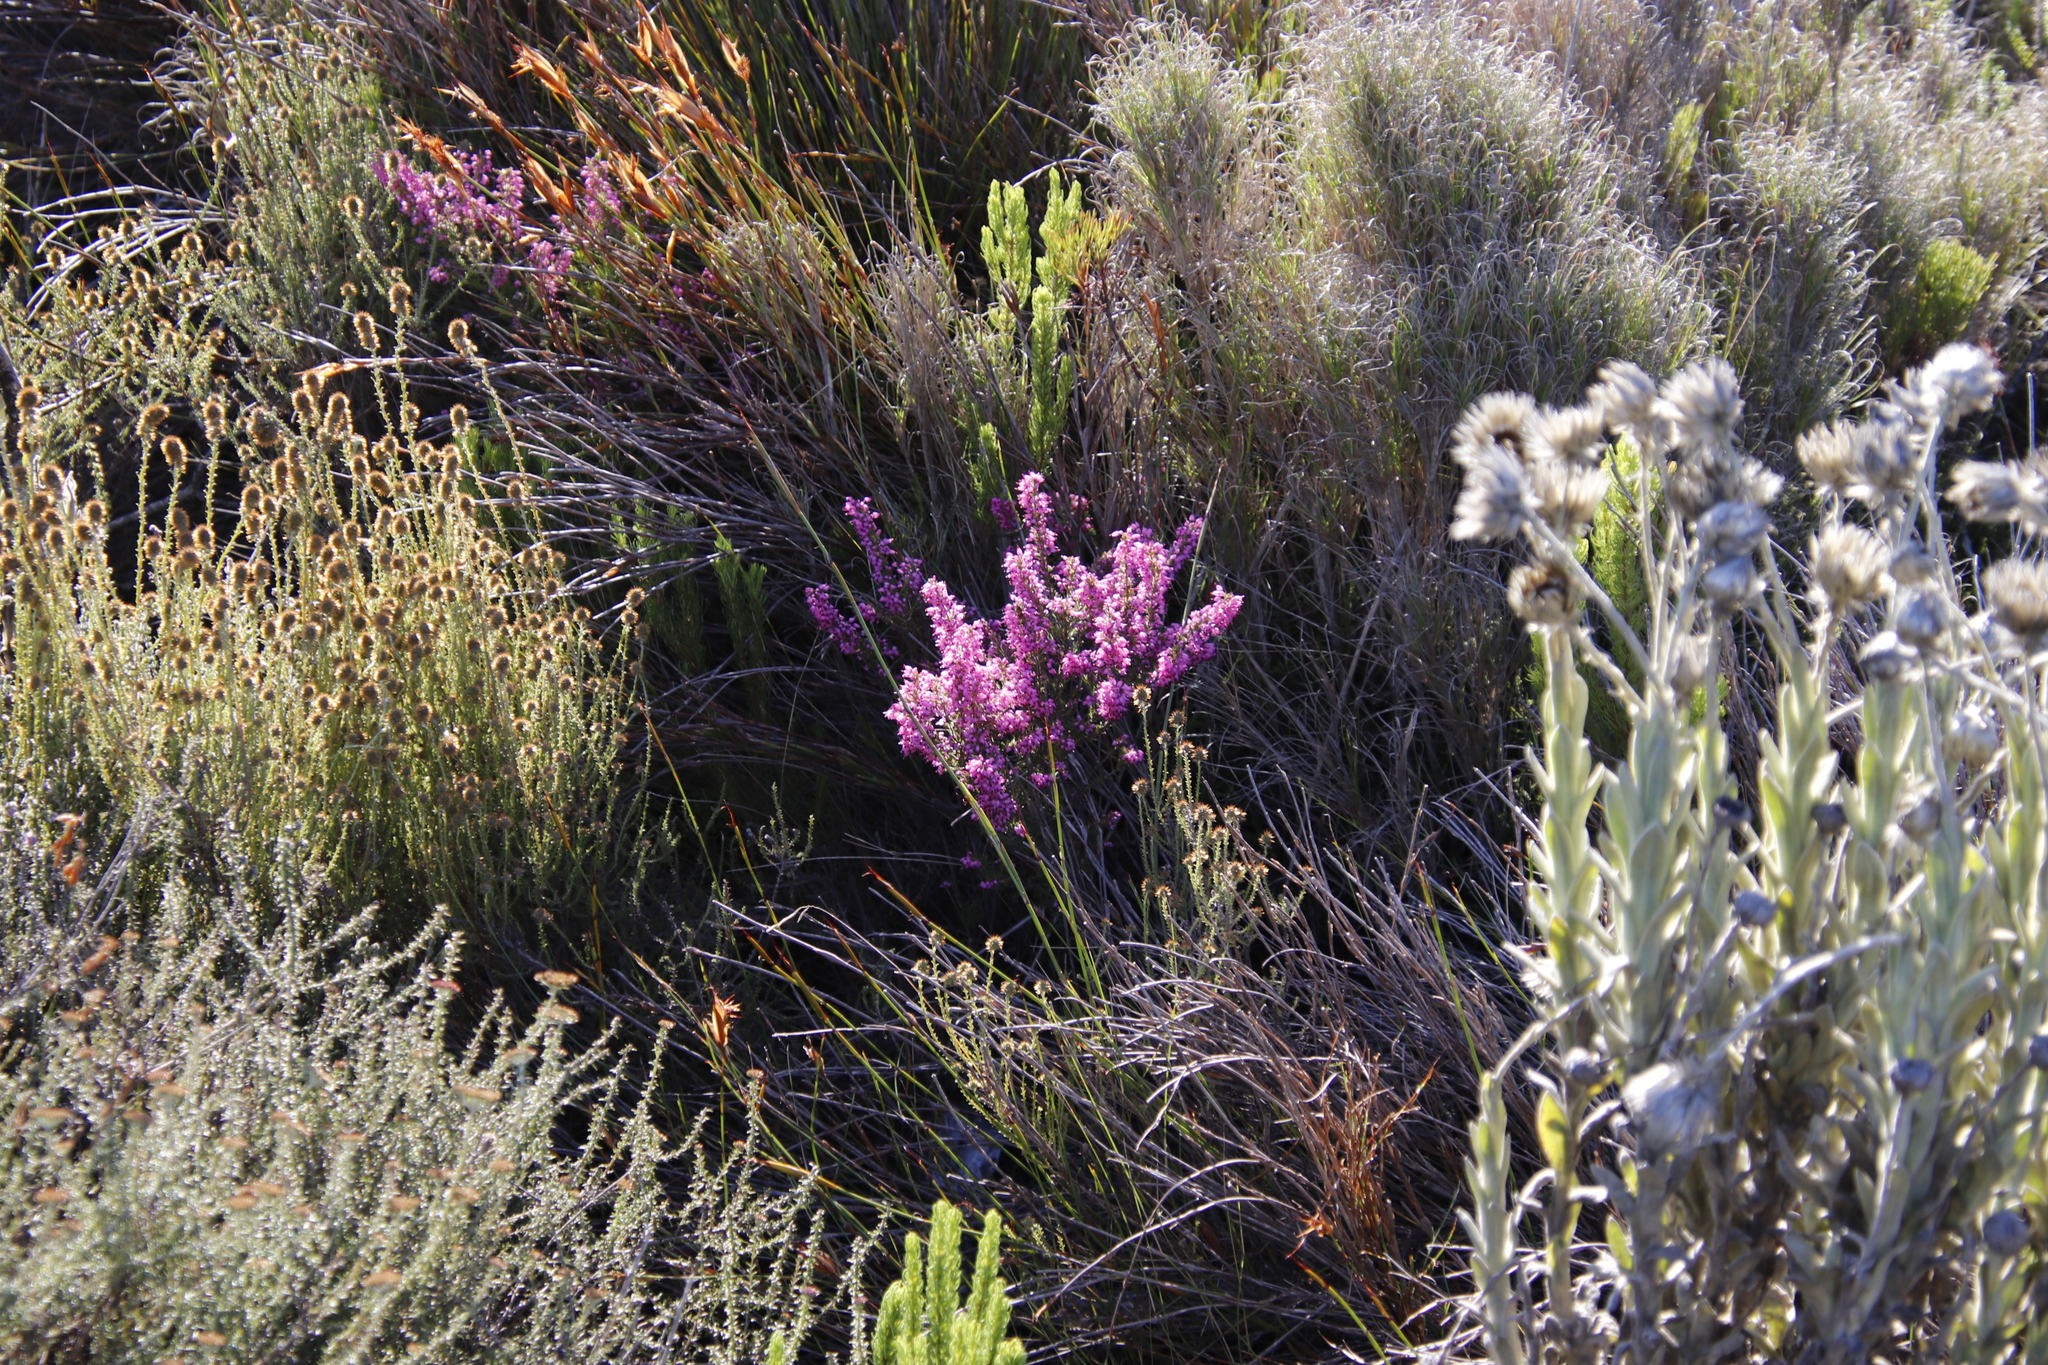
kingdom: Plantae
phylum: Tracheophyta
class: Magnoliopsida
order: Ericales
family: Ericaceae
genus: Erica
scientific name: Erica nudiflora
